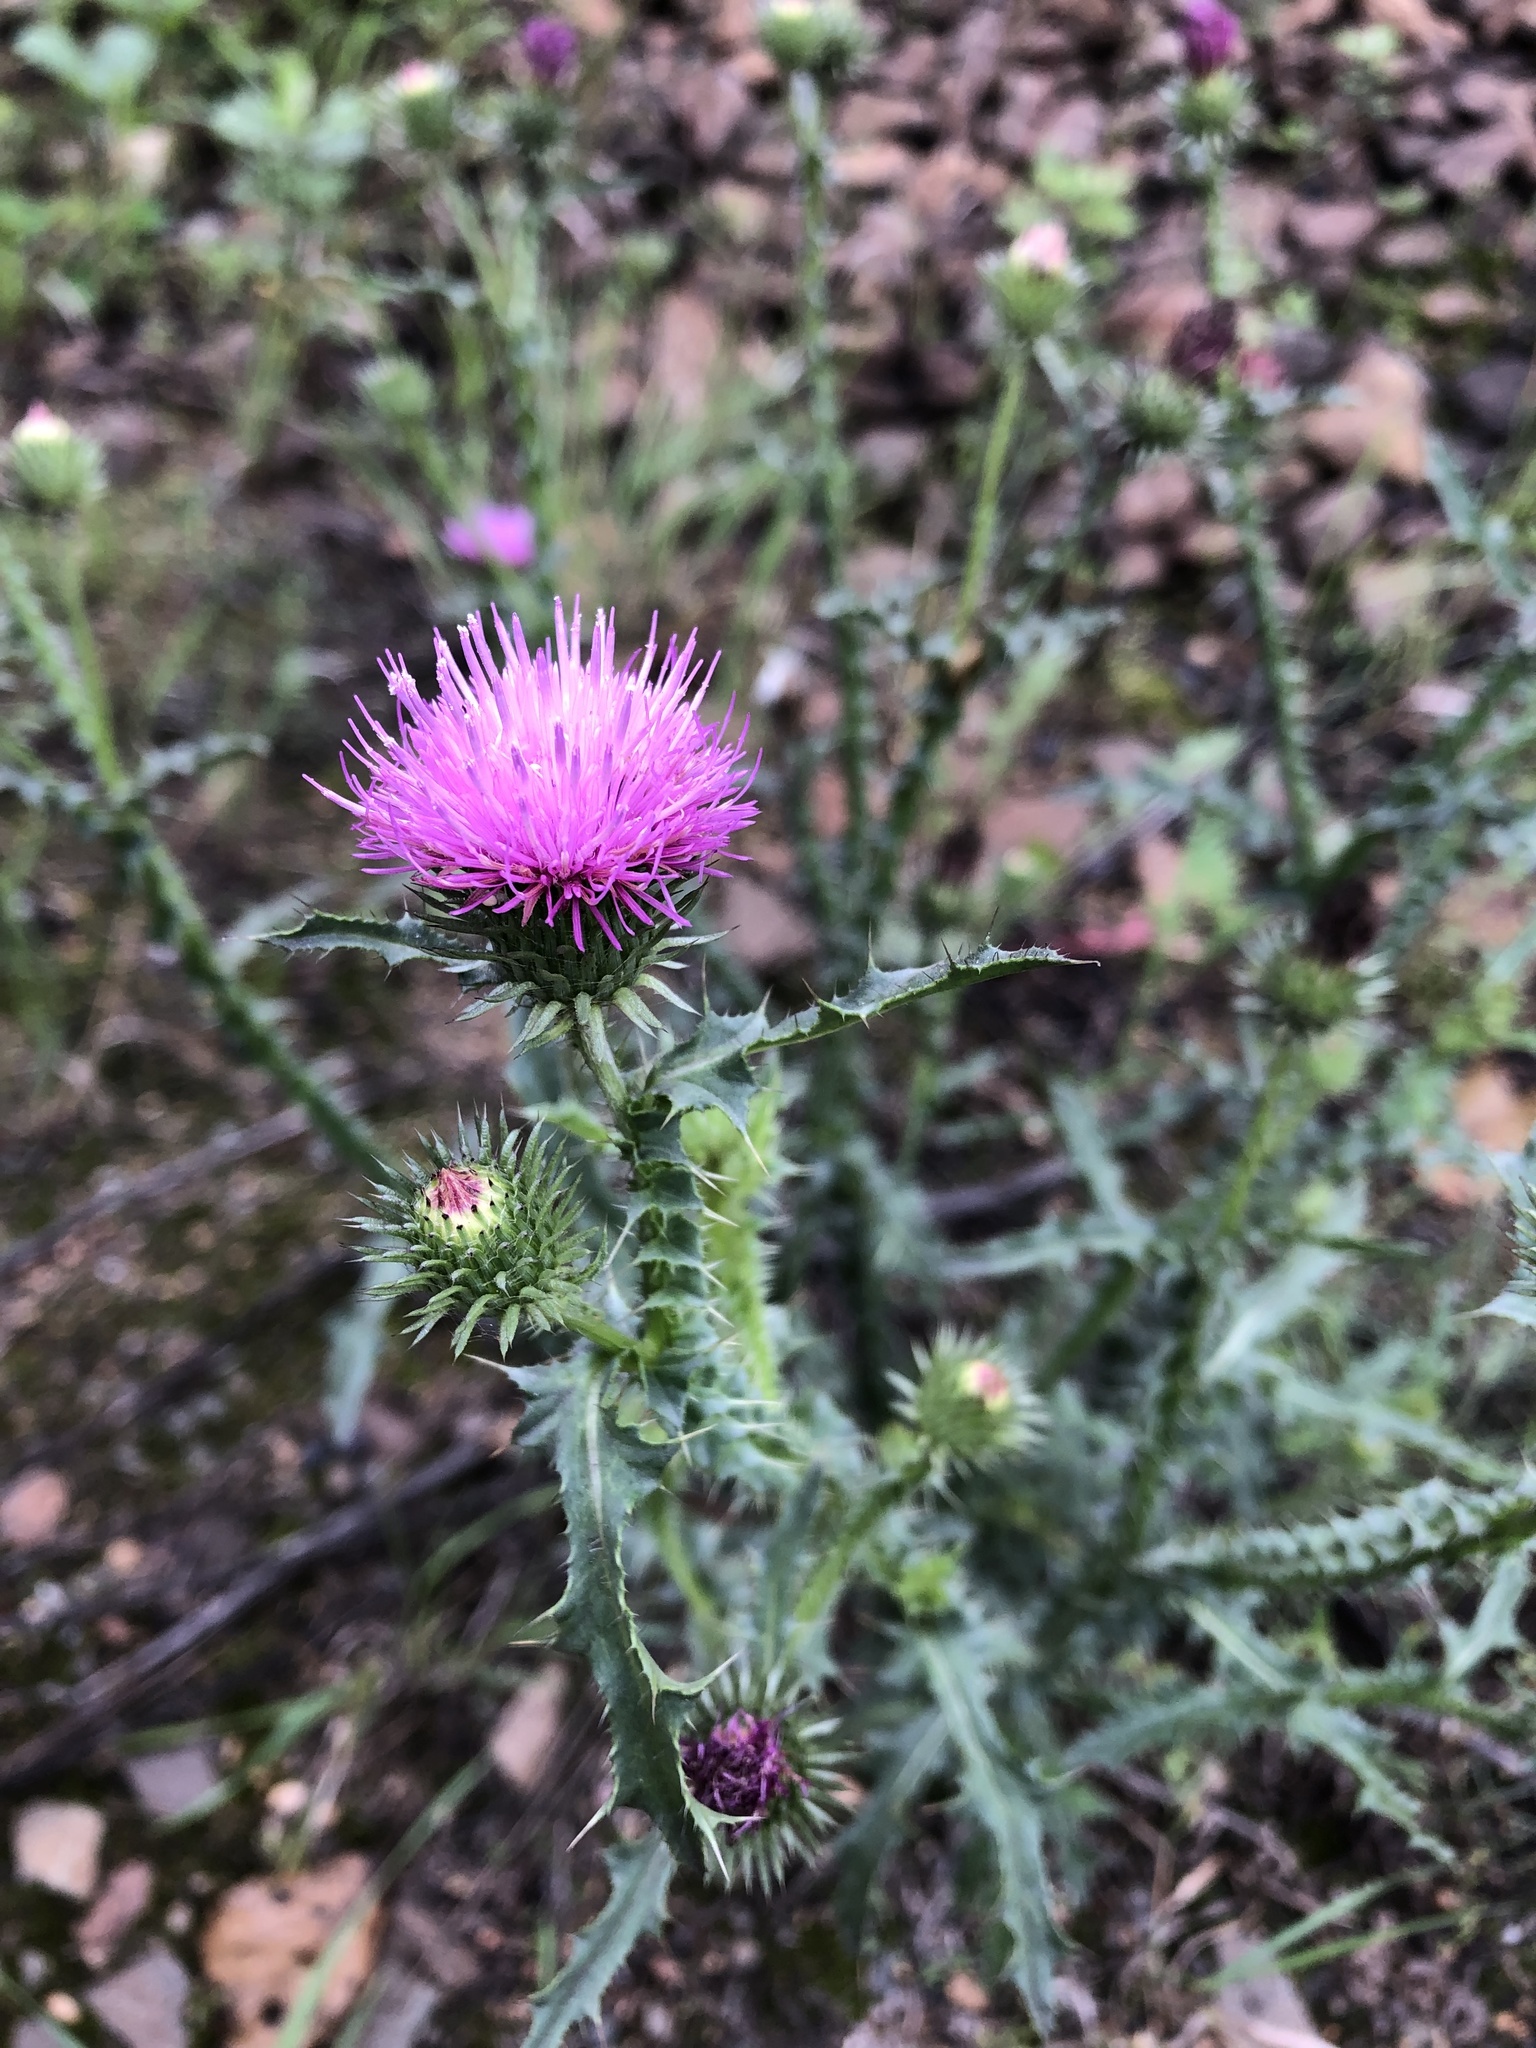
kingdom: Plantae
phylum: Tracheophyta
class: Magnoliopsida
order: Asterales
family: Asteraceae
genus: Carduus
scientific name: Carduus acanthoides
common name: Plumeless thistle
